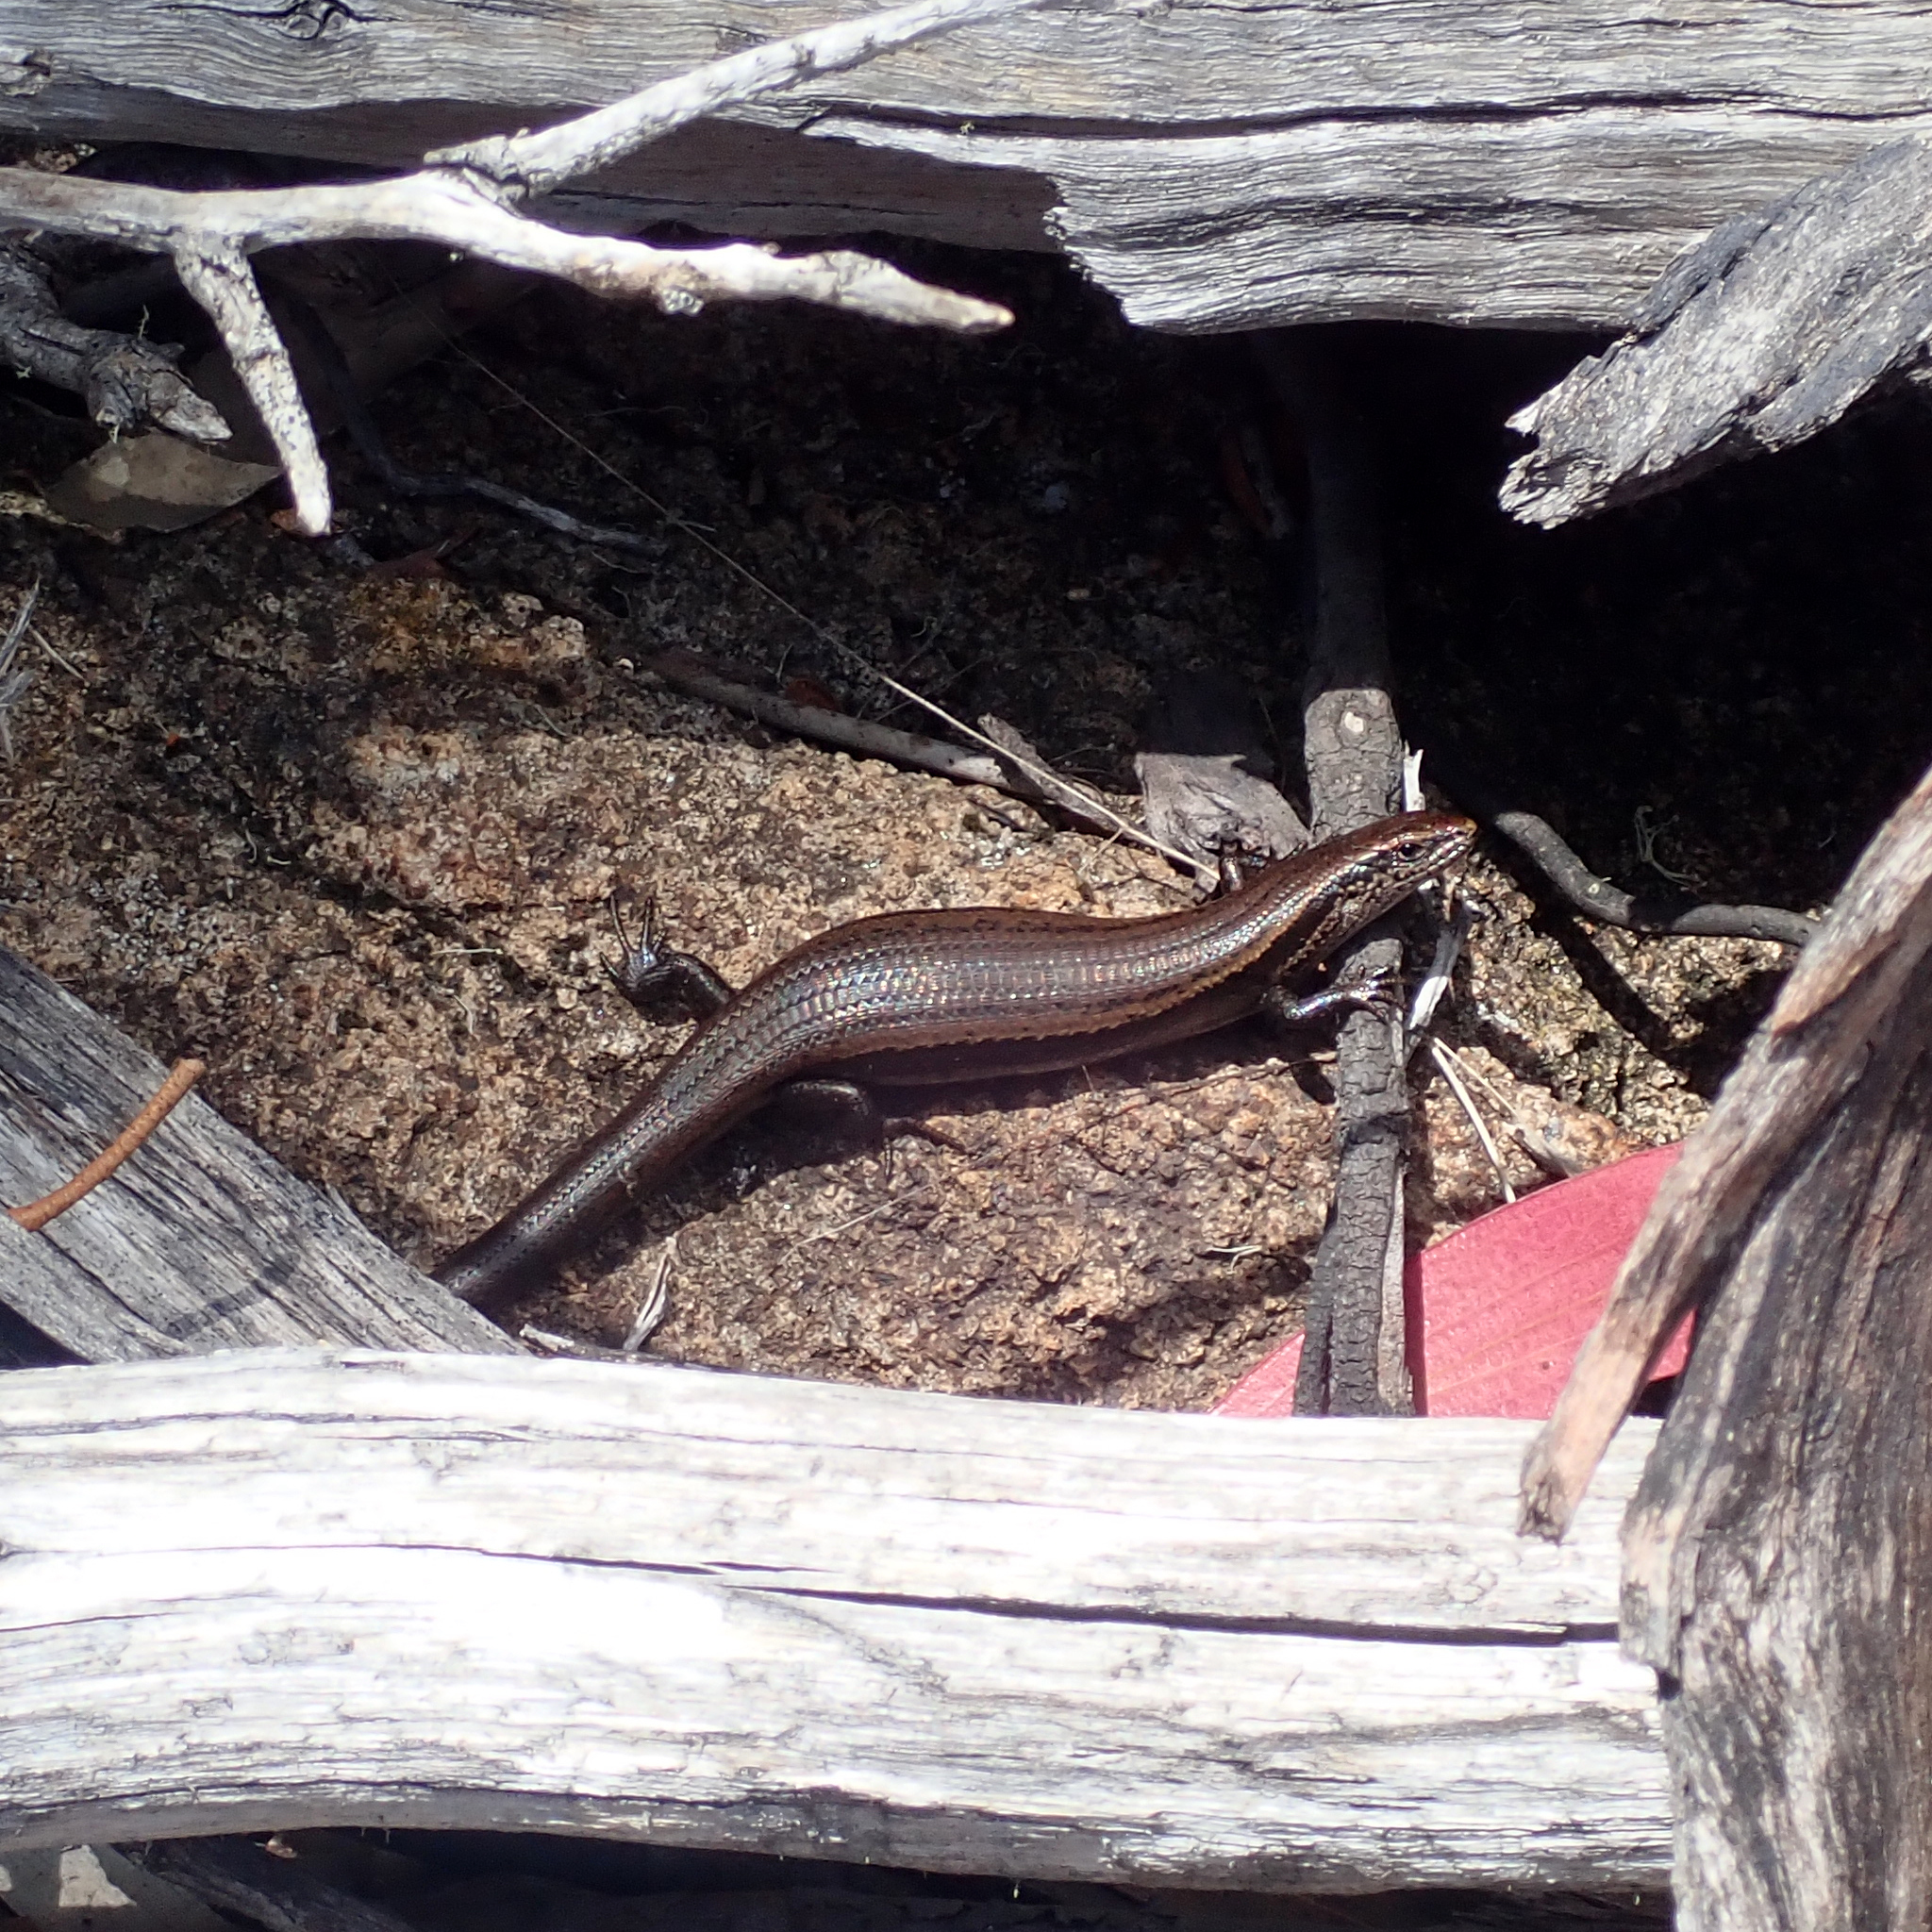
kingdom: Animalia
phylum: Chordata
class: Squamata
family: Scincidae
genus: Carinascincus
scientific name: Carinascincus metallicus
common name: Metallic cool-skink
